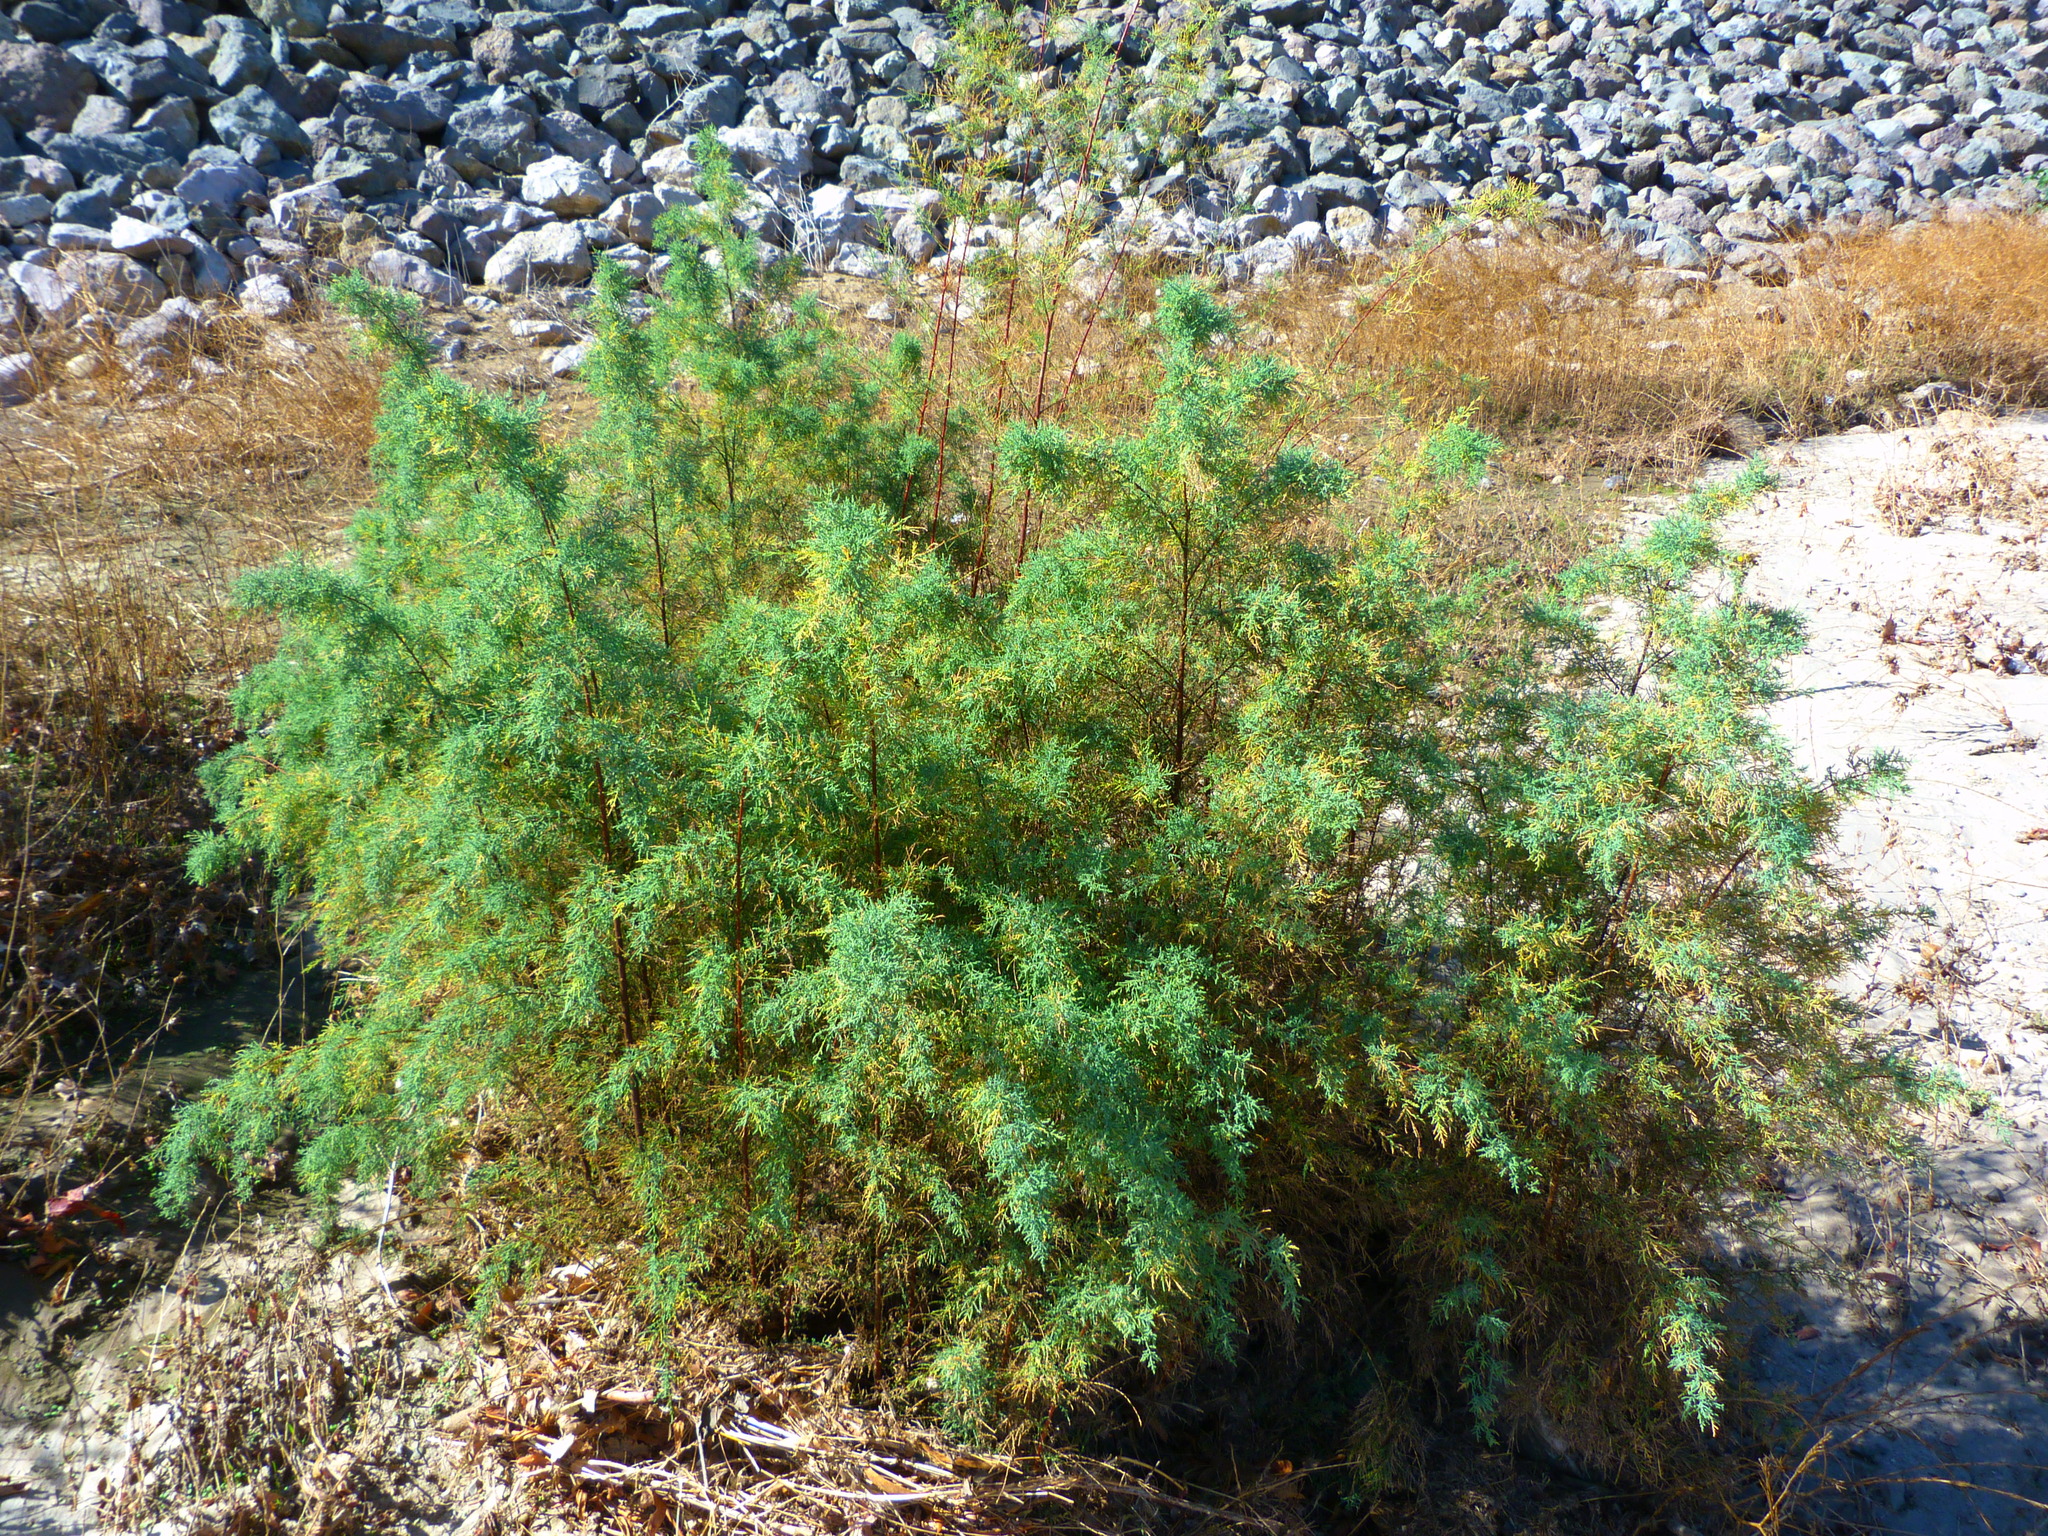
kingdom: Plantae
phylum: Tracheophyta
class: Magnoliopsida
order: Caryophyllales
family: Tamaricaceae
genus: Tamarix
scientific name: Tamarix ramosissima
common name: Pink tamarisk
